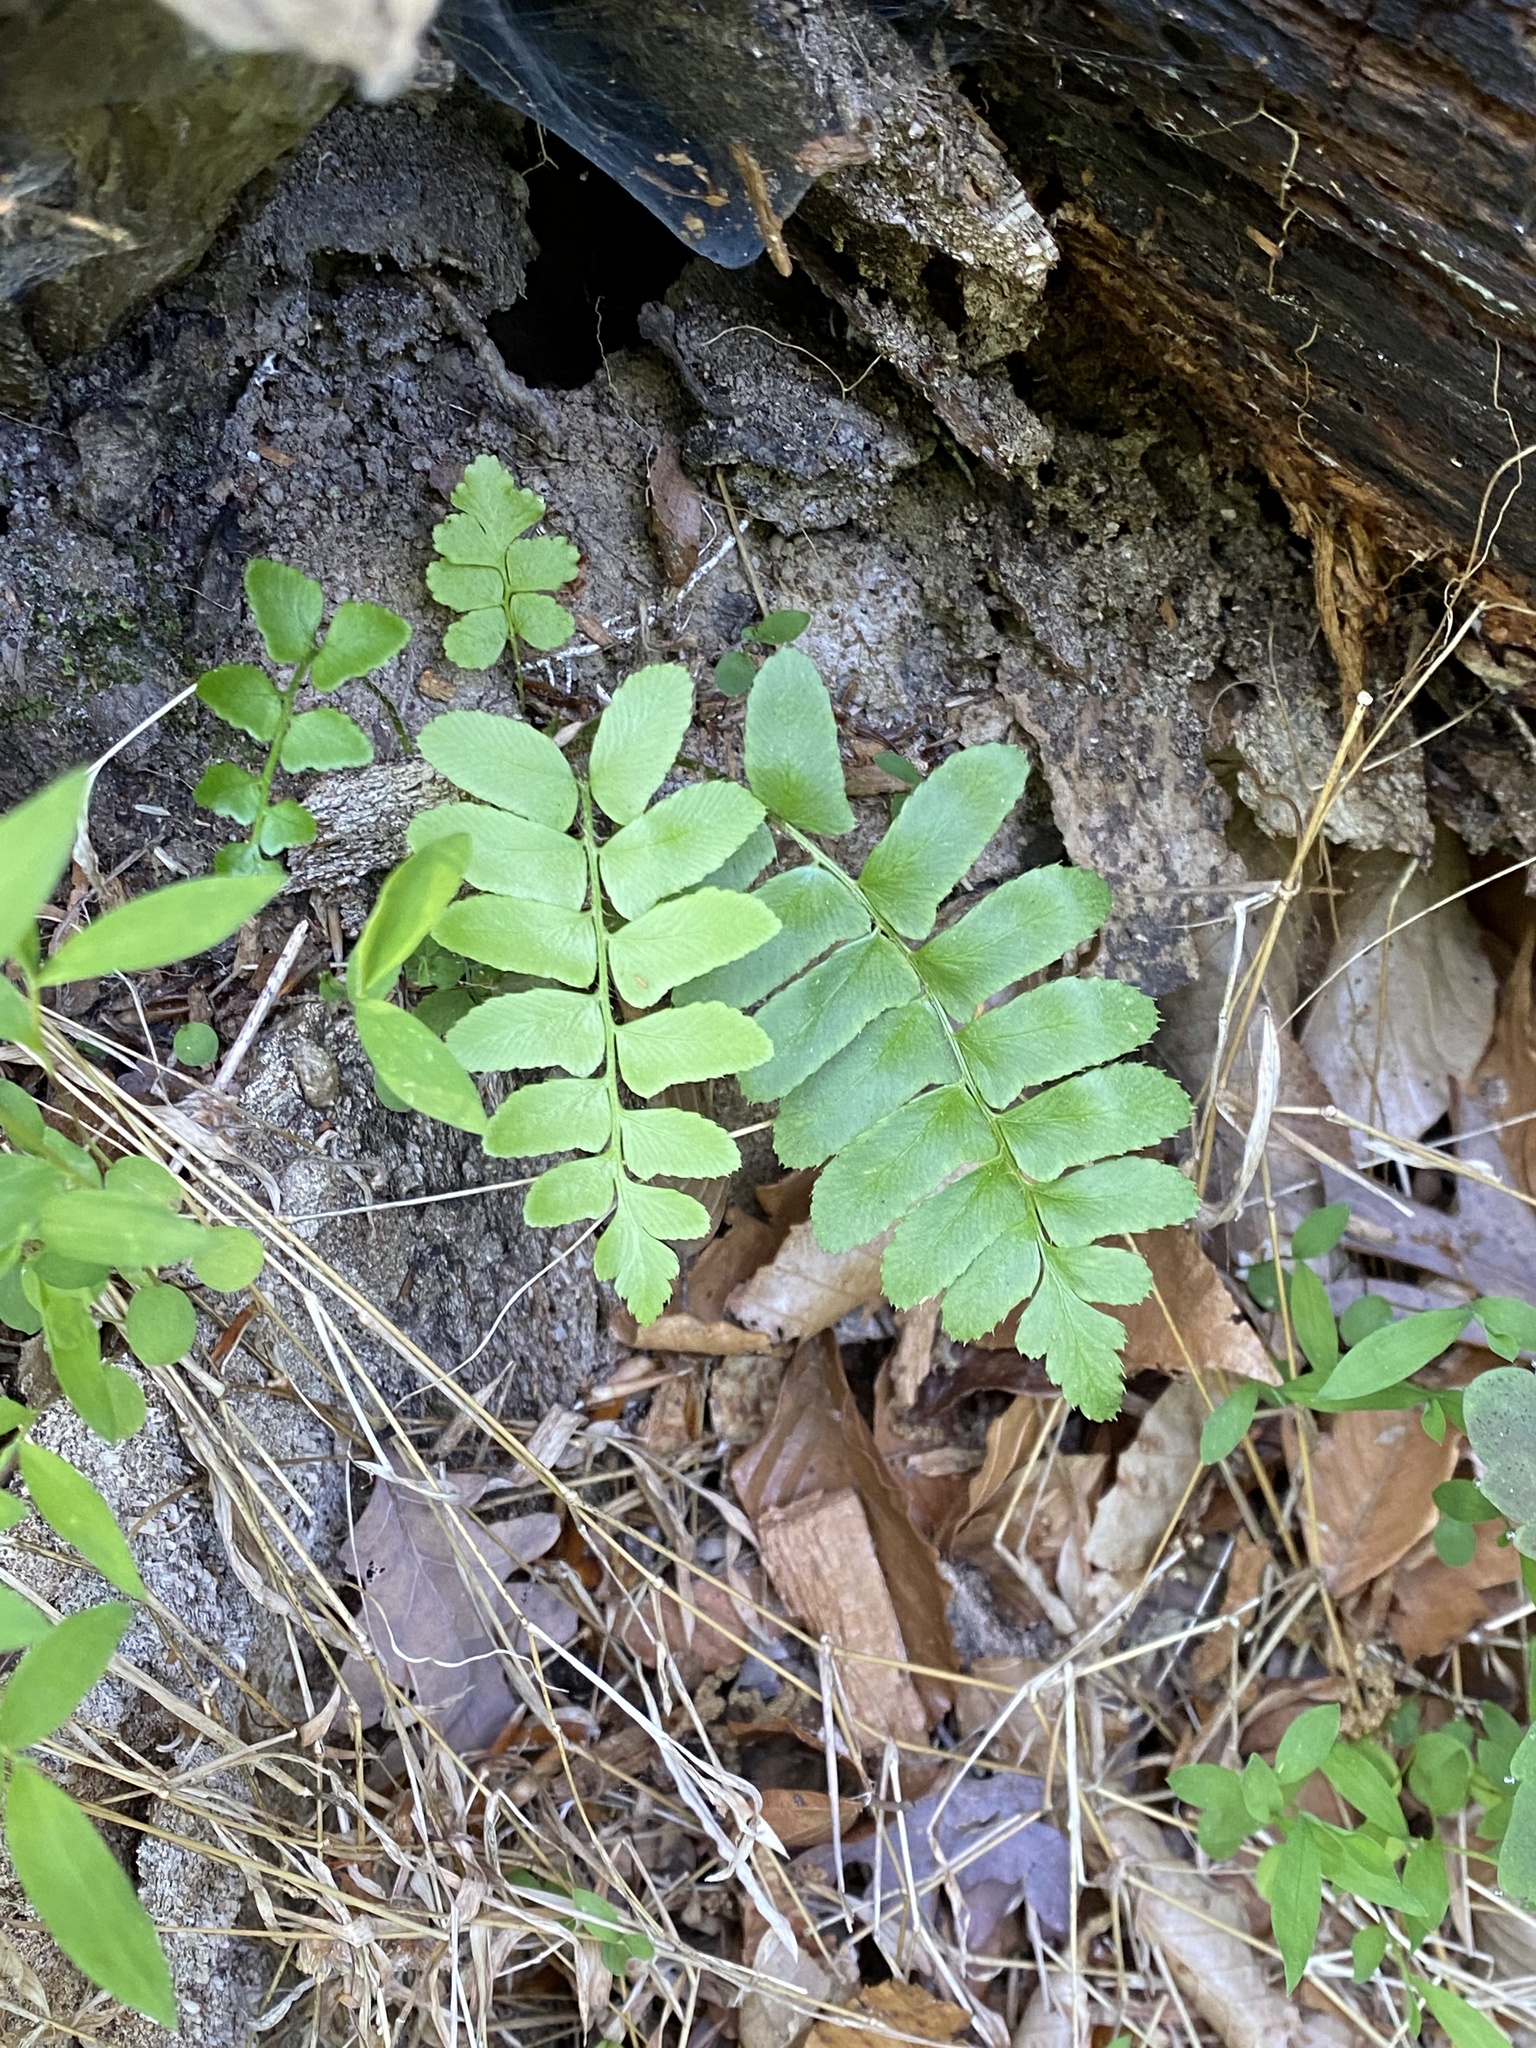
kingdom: Plantae
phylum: Tracheophyta
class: Polypodiopsida
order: Polypodiales
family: Dryopteridaceae
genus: Polystichum
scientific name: Polystichum acrostichoides
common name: Christmas fern
